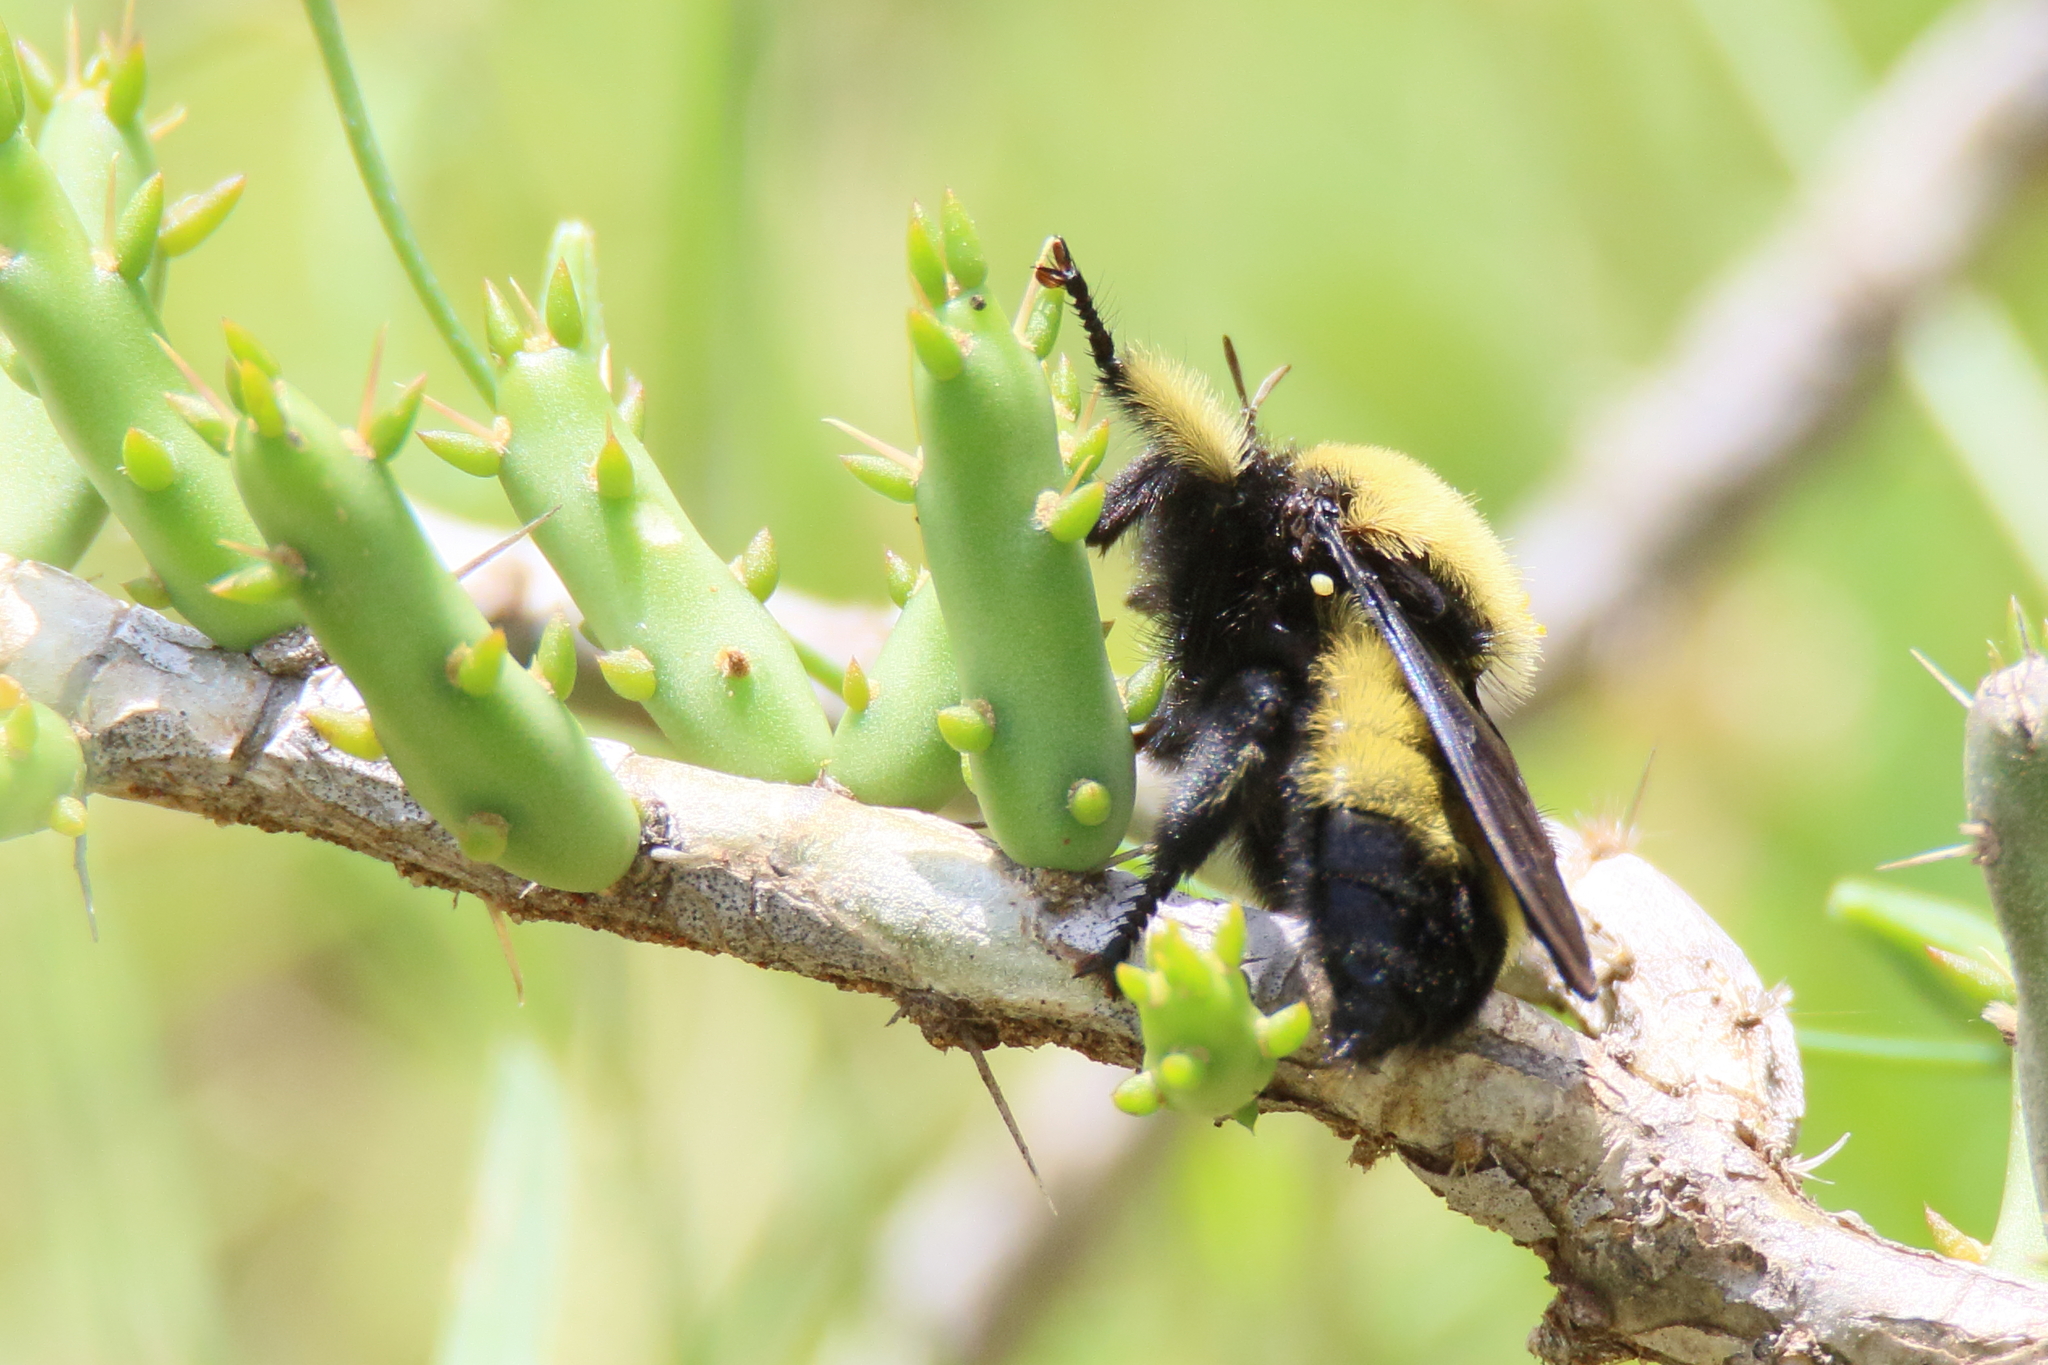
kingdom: Animalia
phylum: Arthropoda
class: Insecta
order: Diptera
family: Asilidae
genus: Laphria
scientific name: Laphria macquarti
